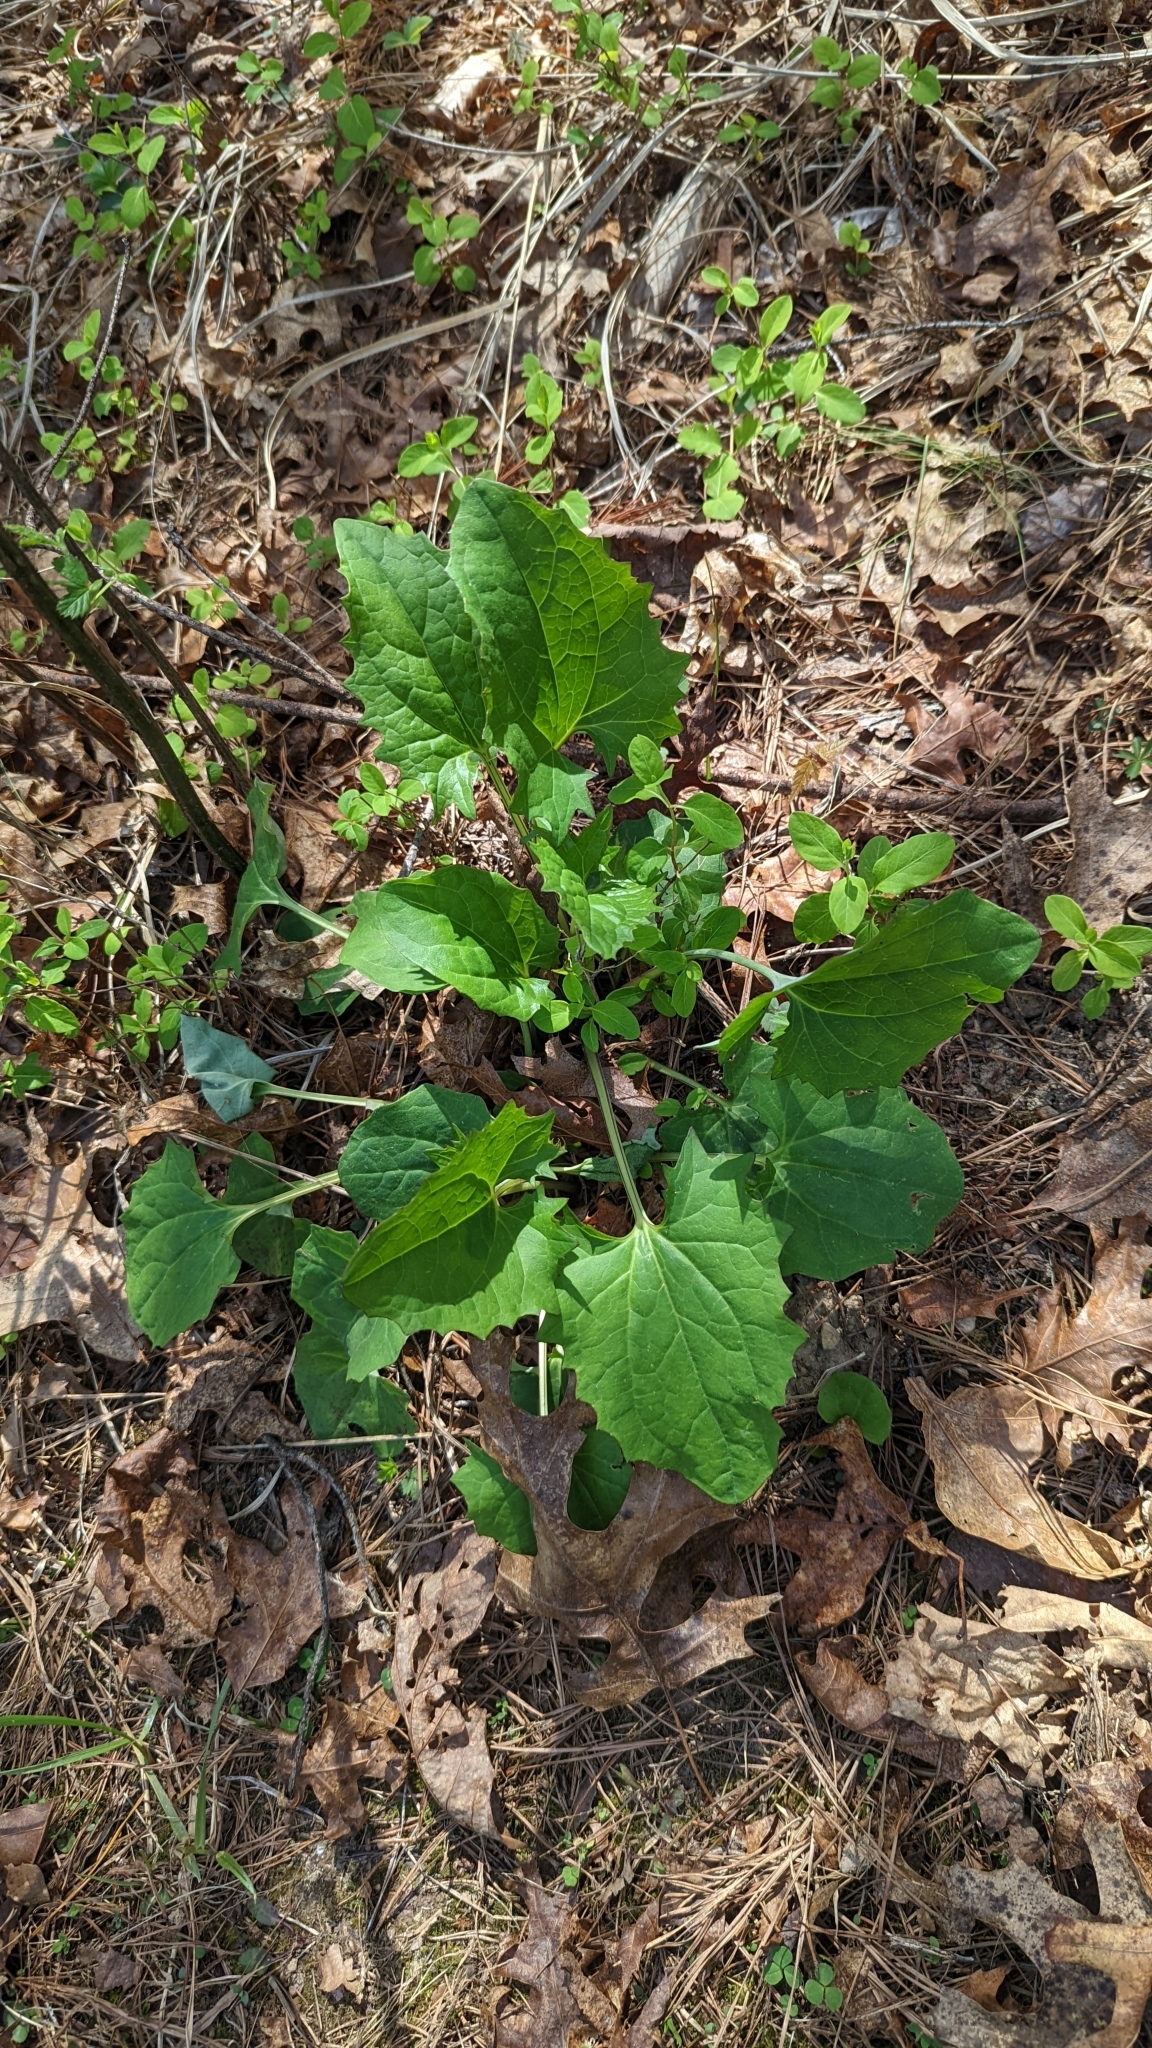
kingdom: Plantae
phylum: Tracheophyta
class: Magnoliopsida
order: Asterales
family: Asteraceae
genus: Arnoglossum
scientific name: Arnoglossum atriplicifolium
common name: Pale indian-plantain
